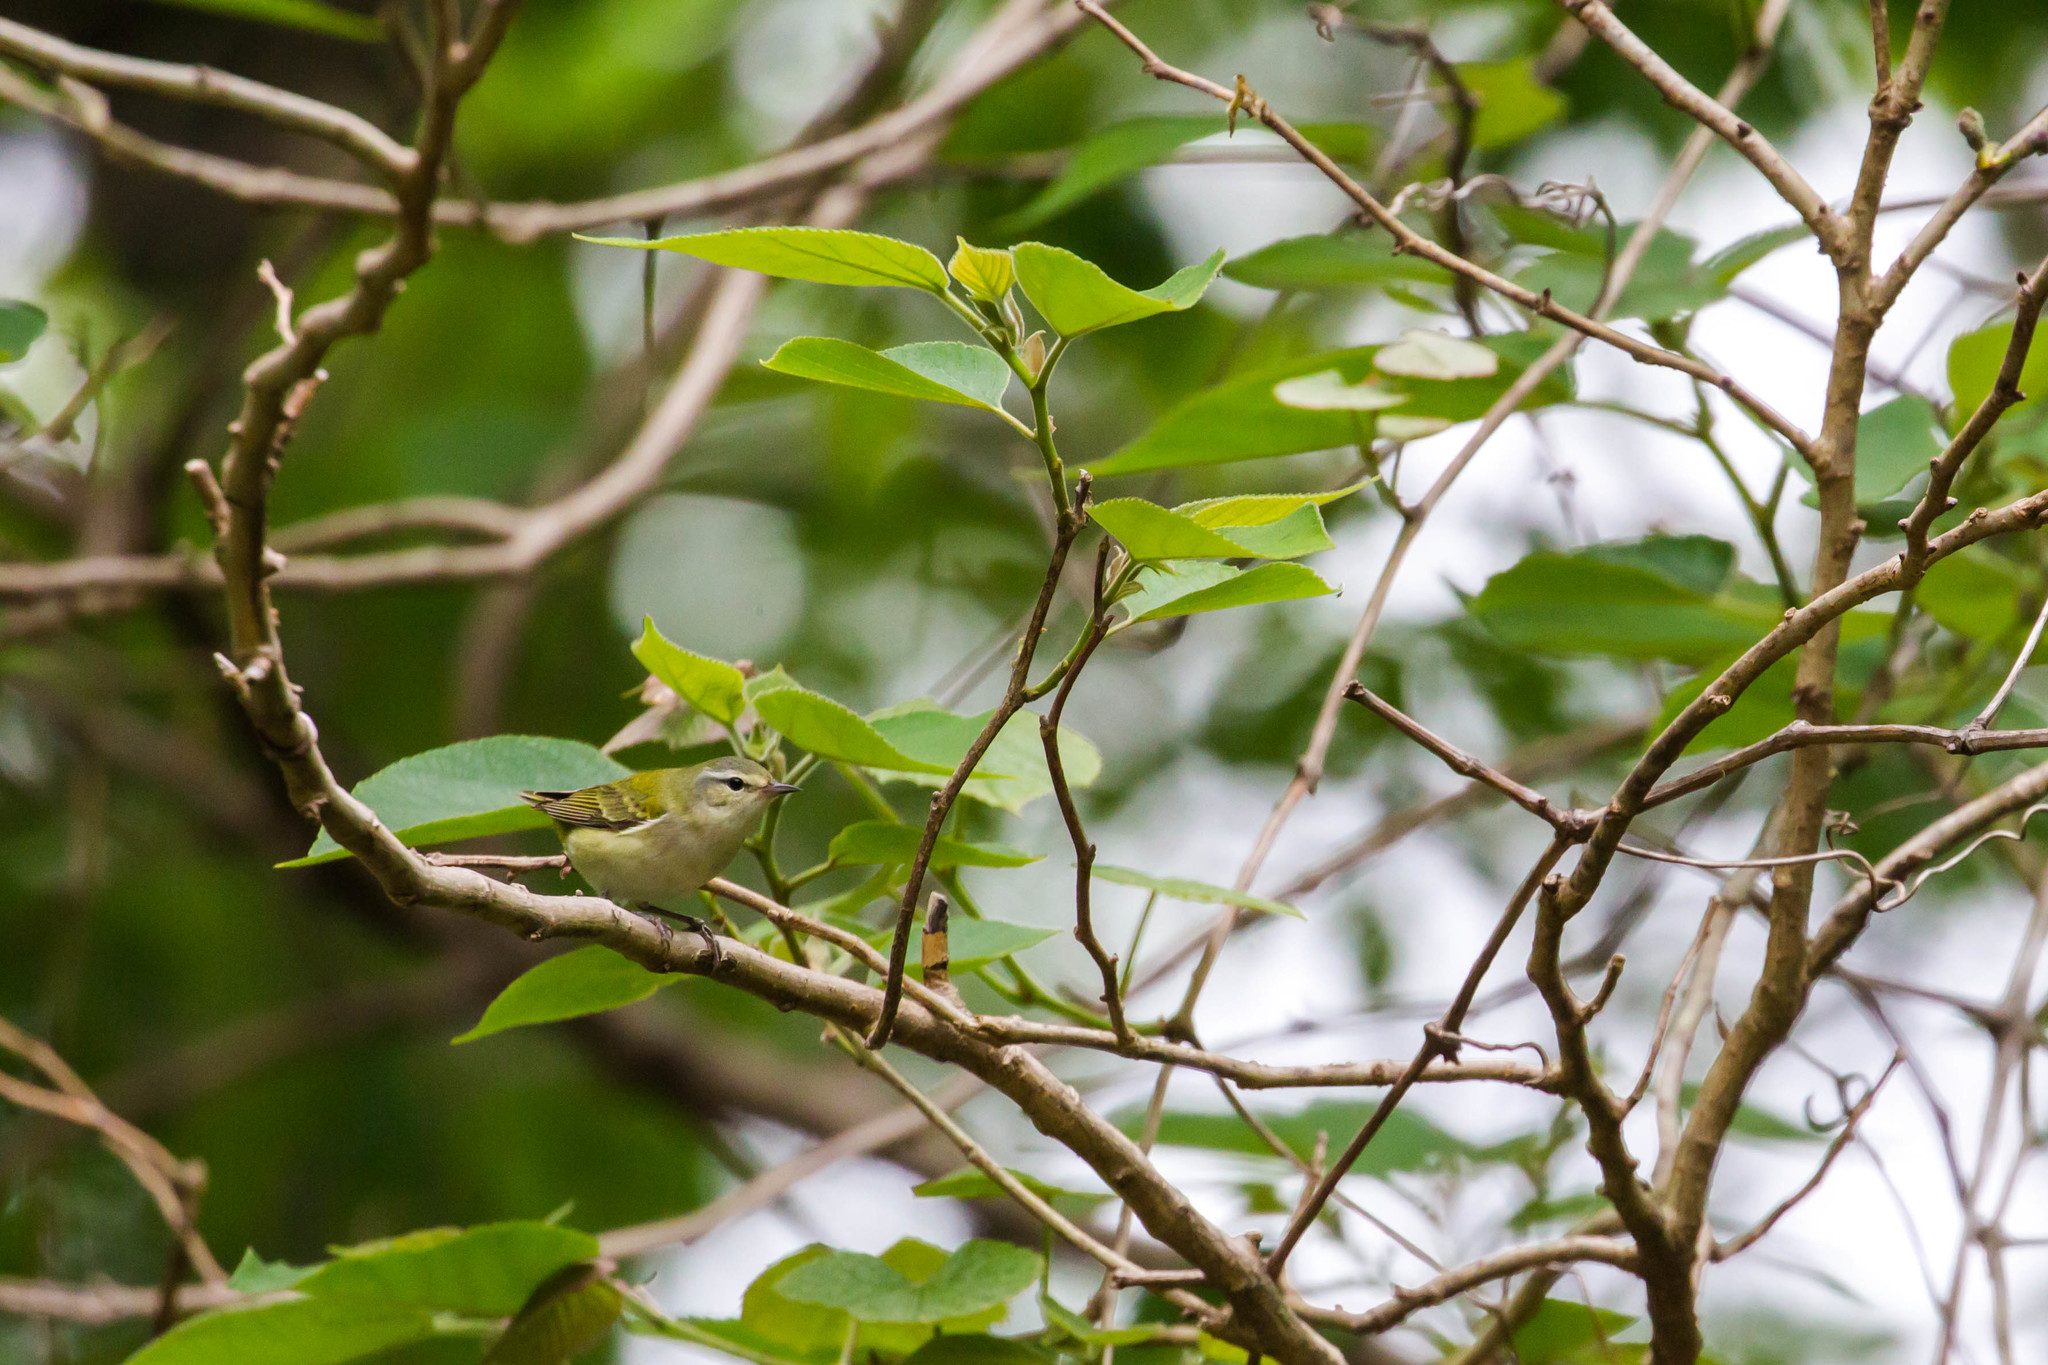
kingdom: Animalia
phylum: Chordata
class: Aves
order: Passeriformes
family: Parulidae
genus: Leiothlypis
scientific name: Leiothlypis peregrina
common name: Tennessee warbler
